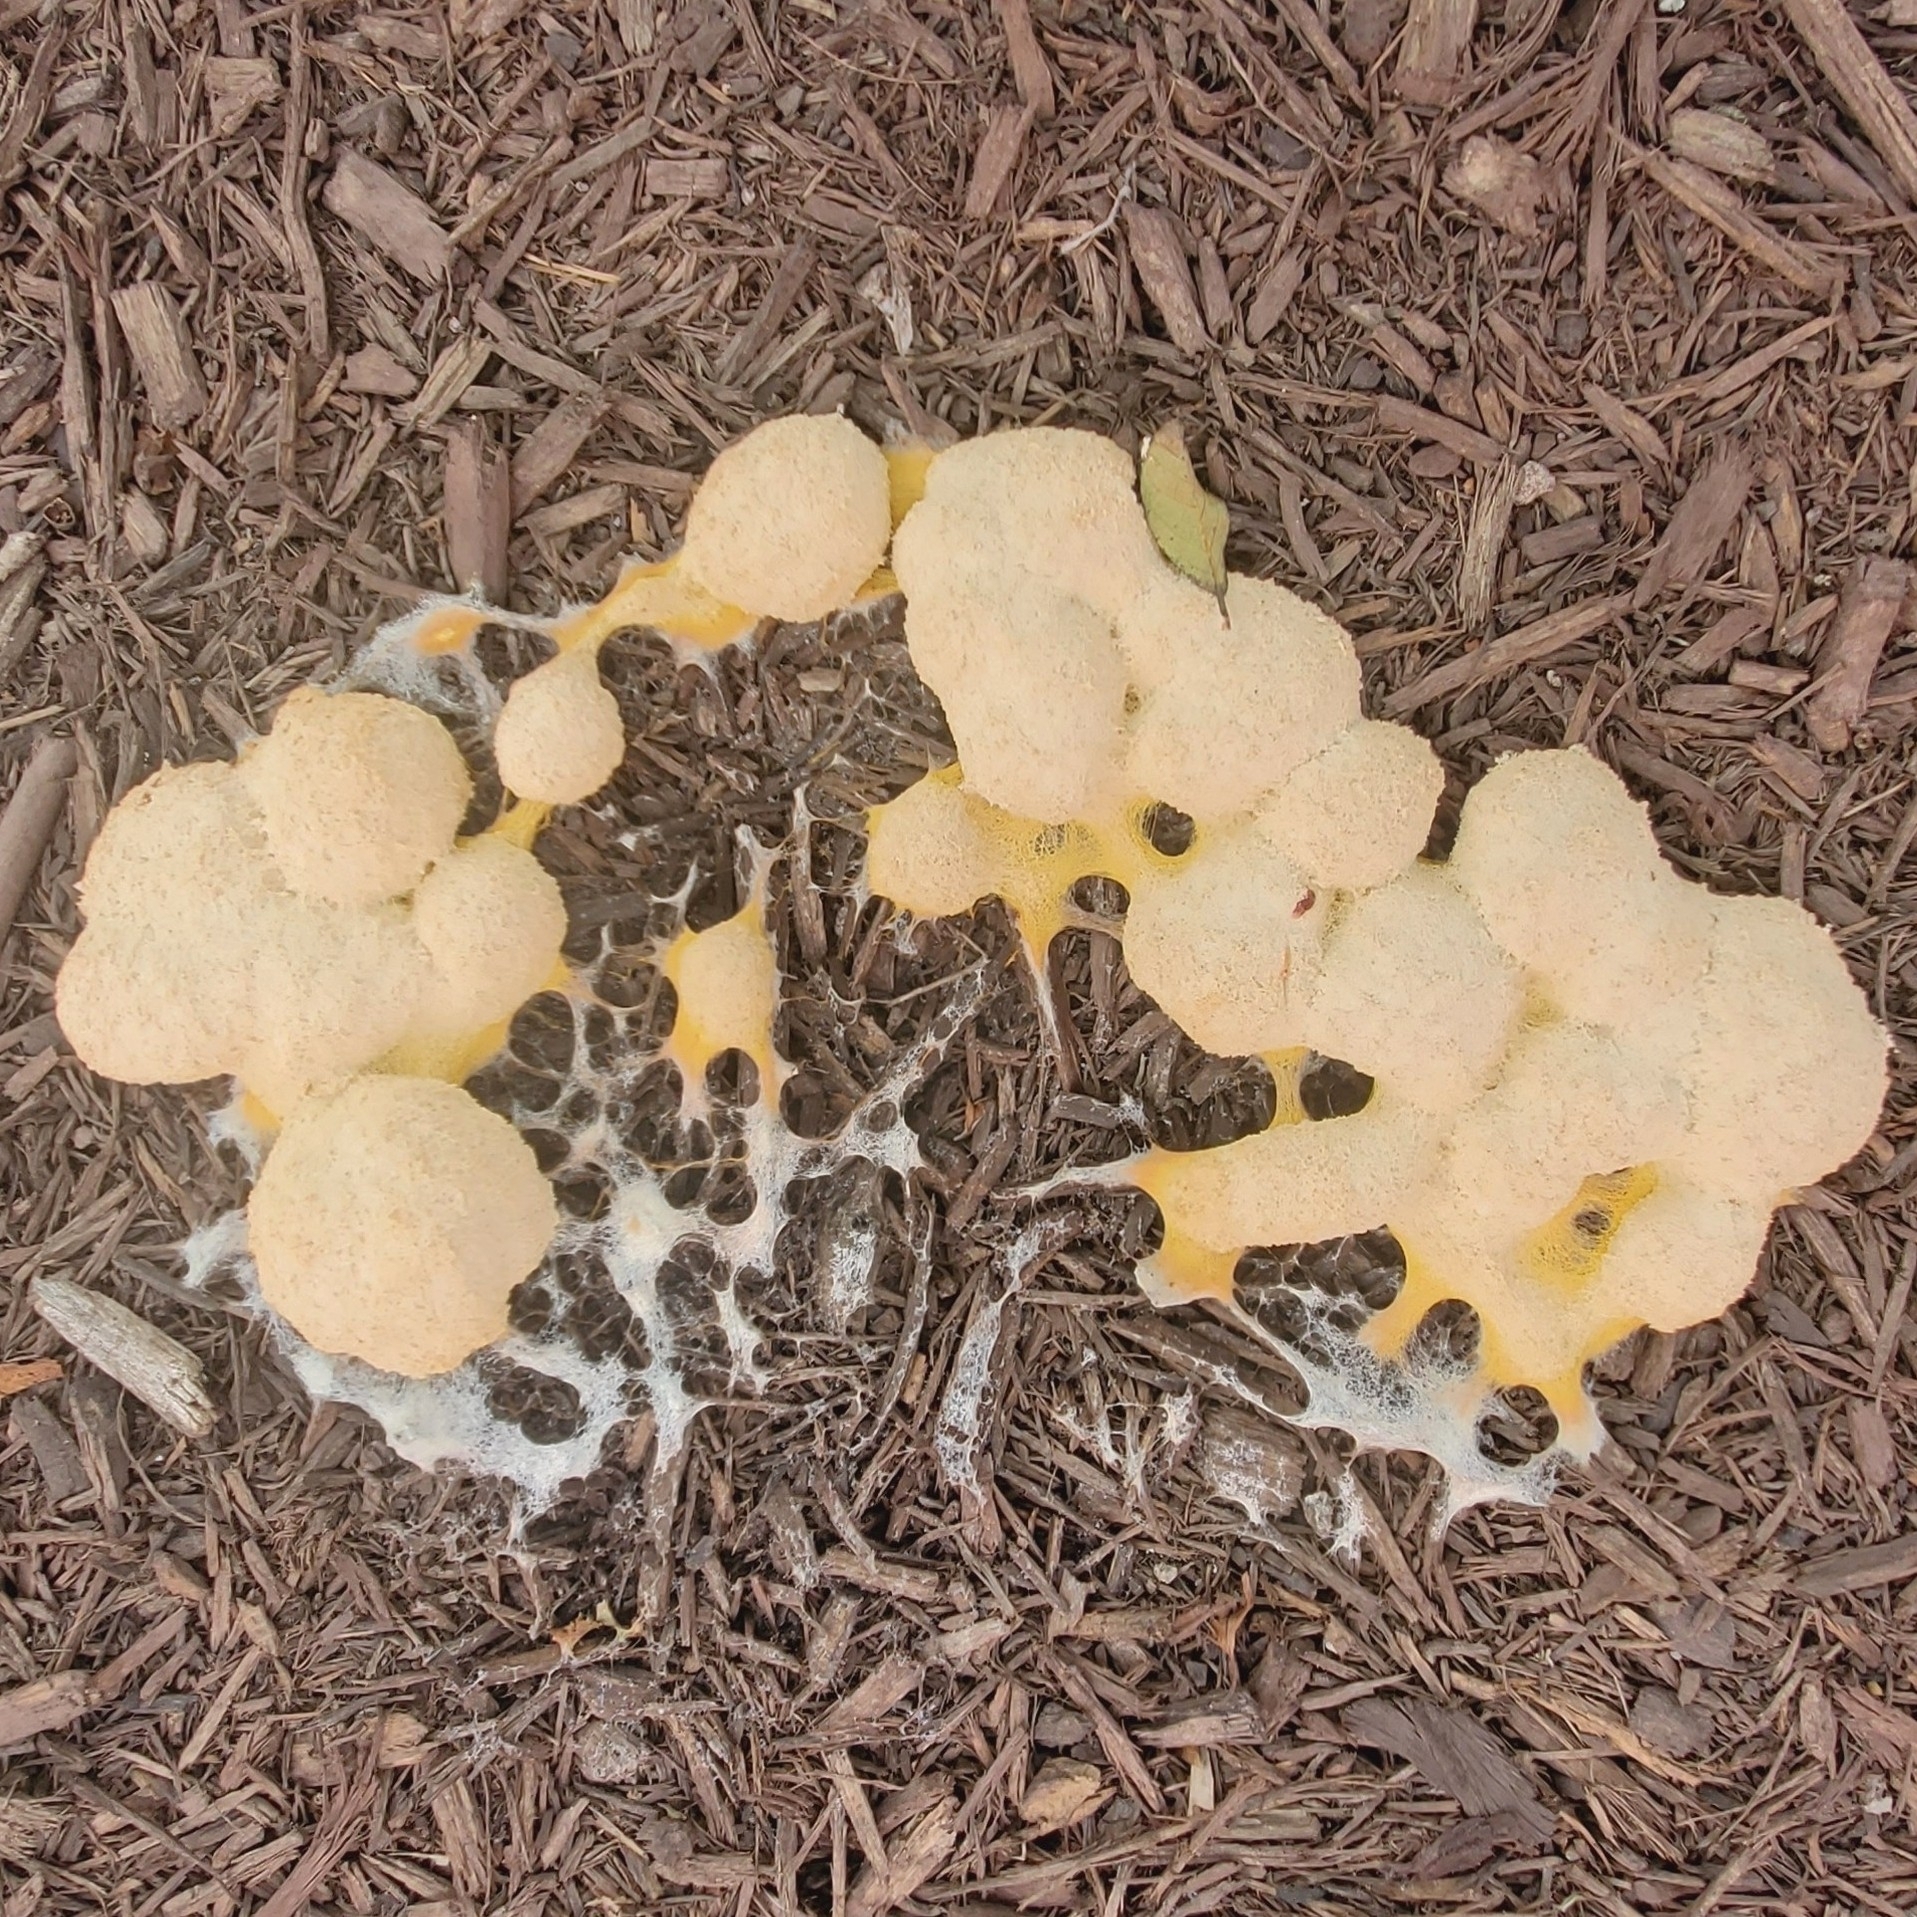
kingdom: Protozoa
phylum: Mycetozoa
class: Myxomycetes
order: Physarales
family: Physaraceae
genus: Fuligo
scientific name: Fuligo septica
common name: Dog vomit slime mold
